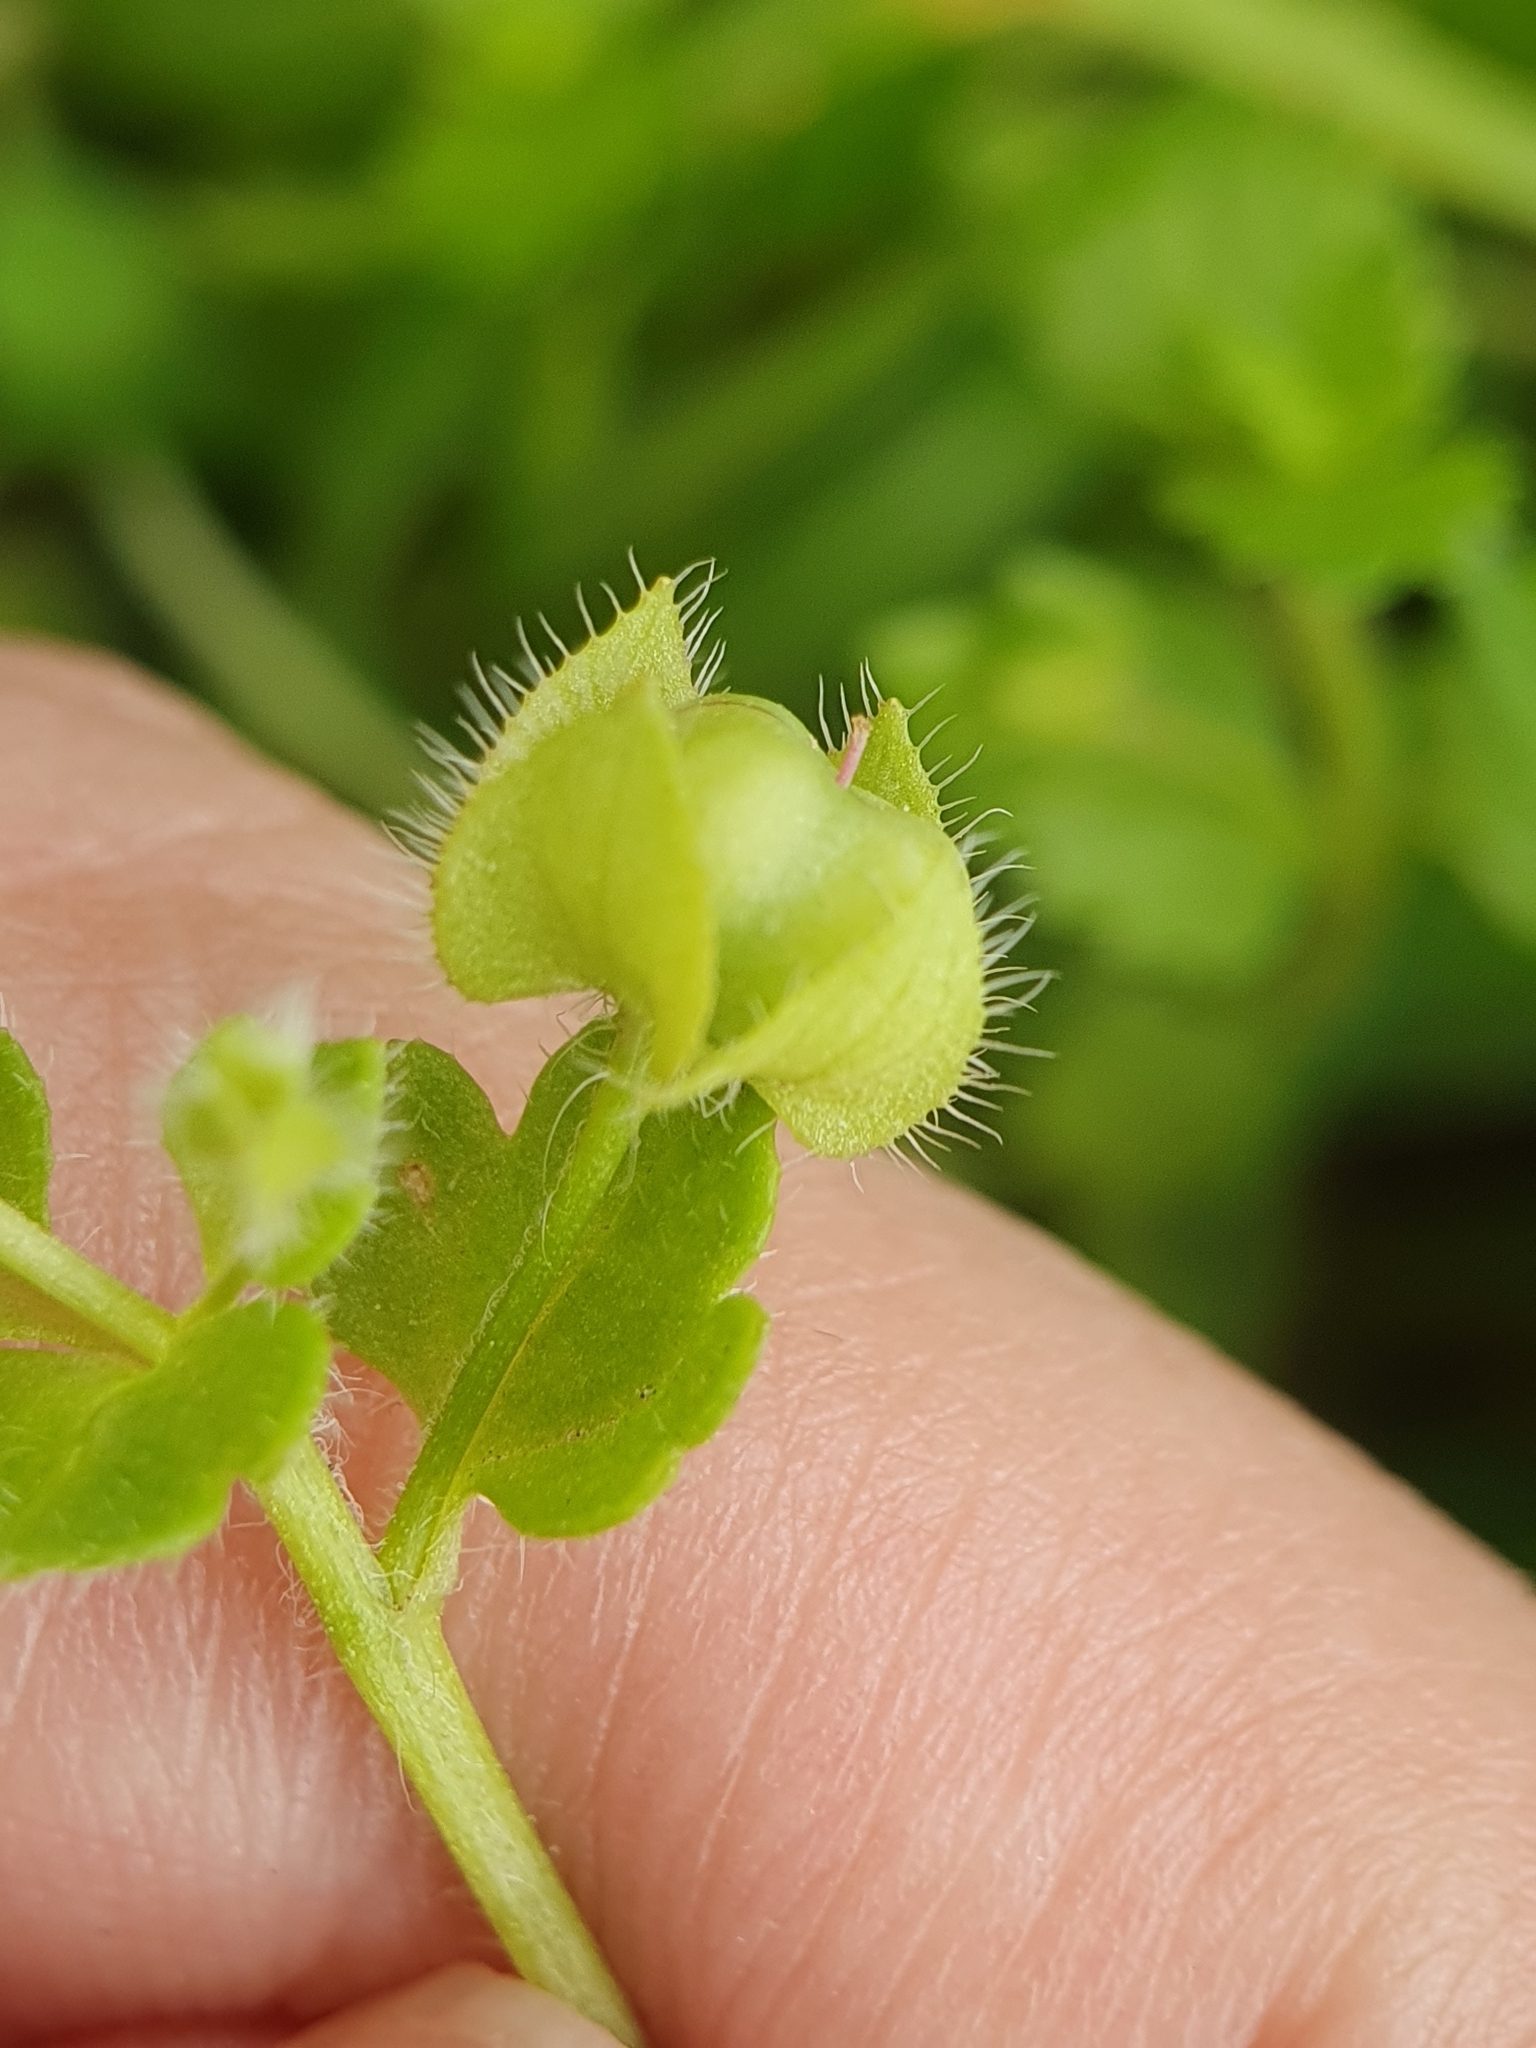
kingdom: Plantae
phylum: Tracheophyta
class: Magnoliopsida
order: Lamiales
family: Plantaginaceae
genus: Veronica
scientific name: Veronica hederifolia
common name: Ivy-leaved speedwell
